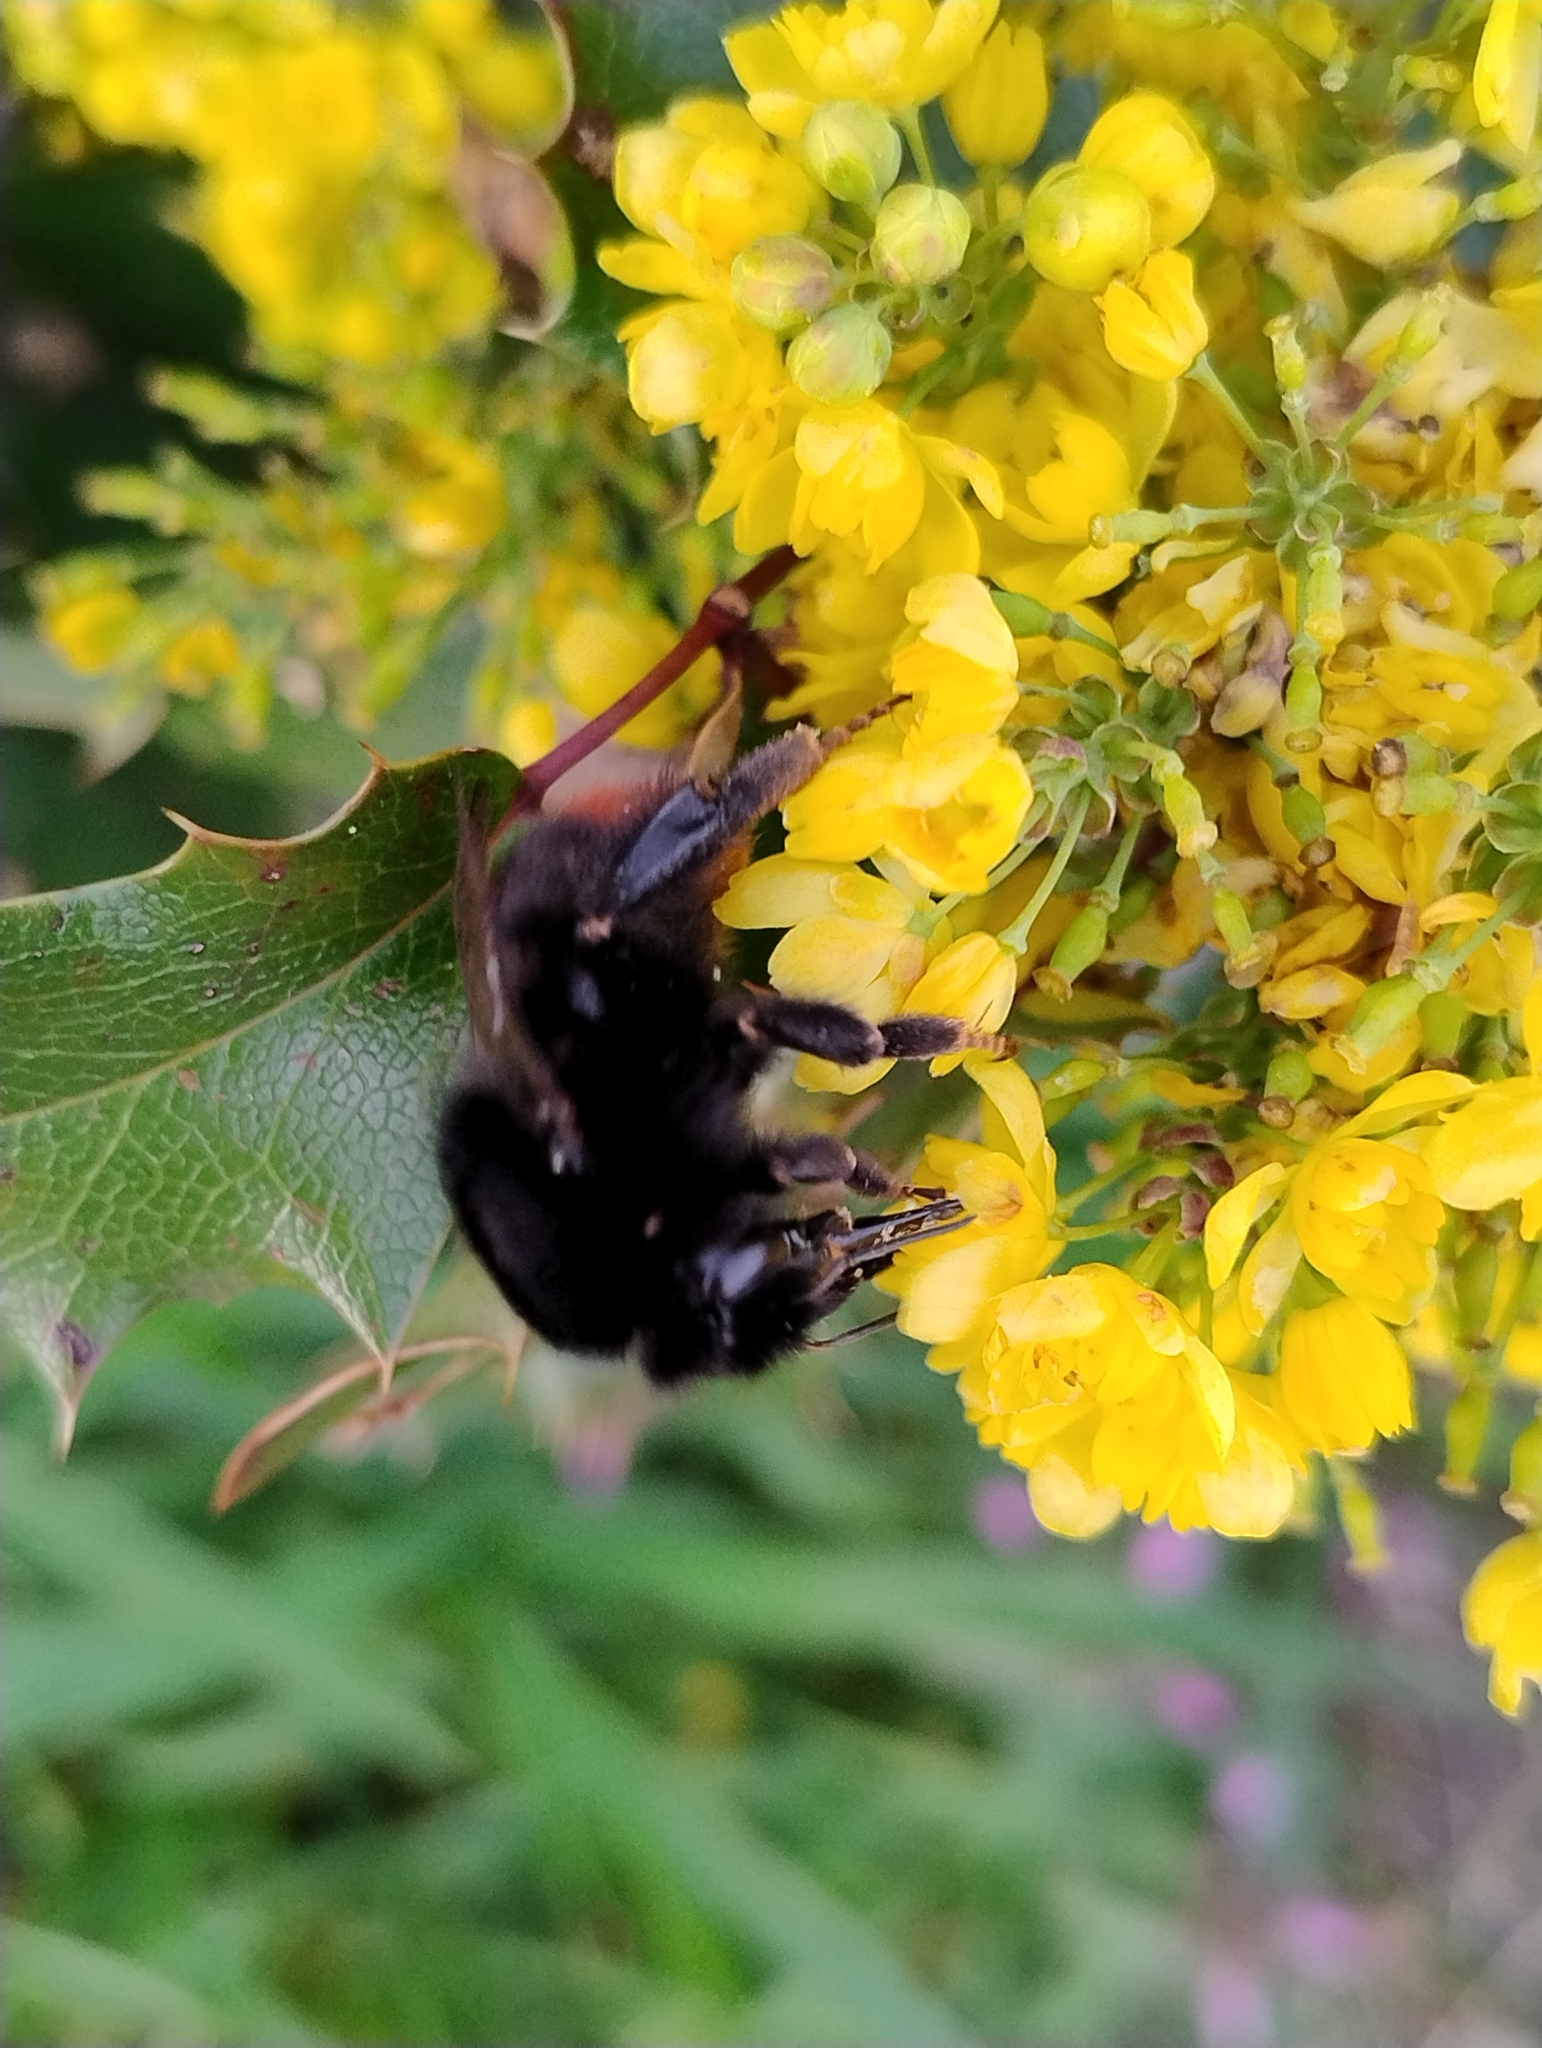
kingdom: Animalia
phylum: Arthropoda
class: Insecta
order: Hymenoptera
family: Apidae
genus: Bombus
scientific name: Bombus lapidarius
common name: Large red-tailed humble-bee
